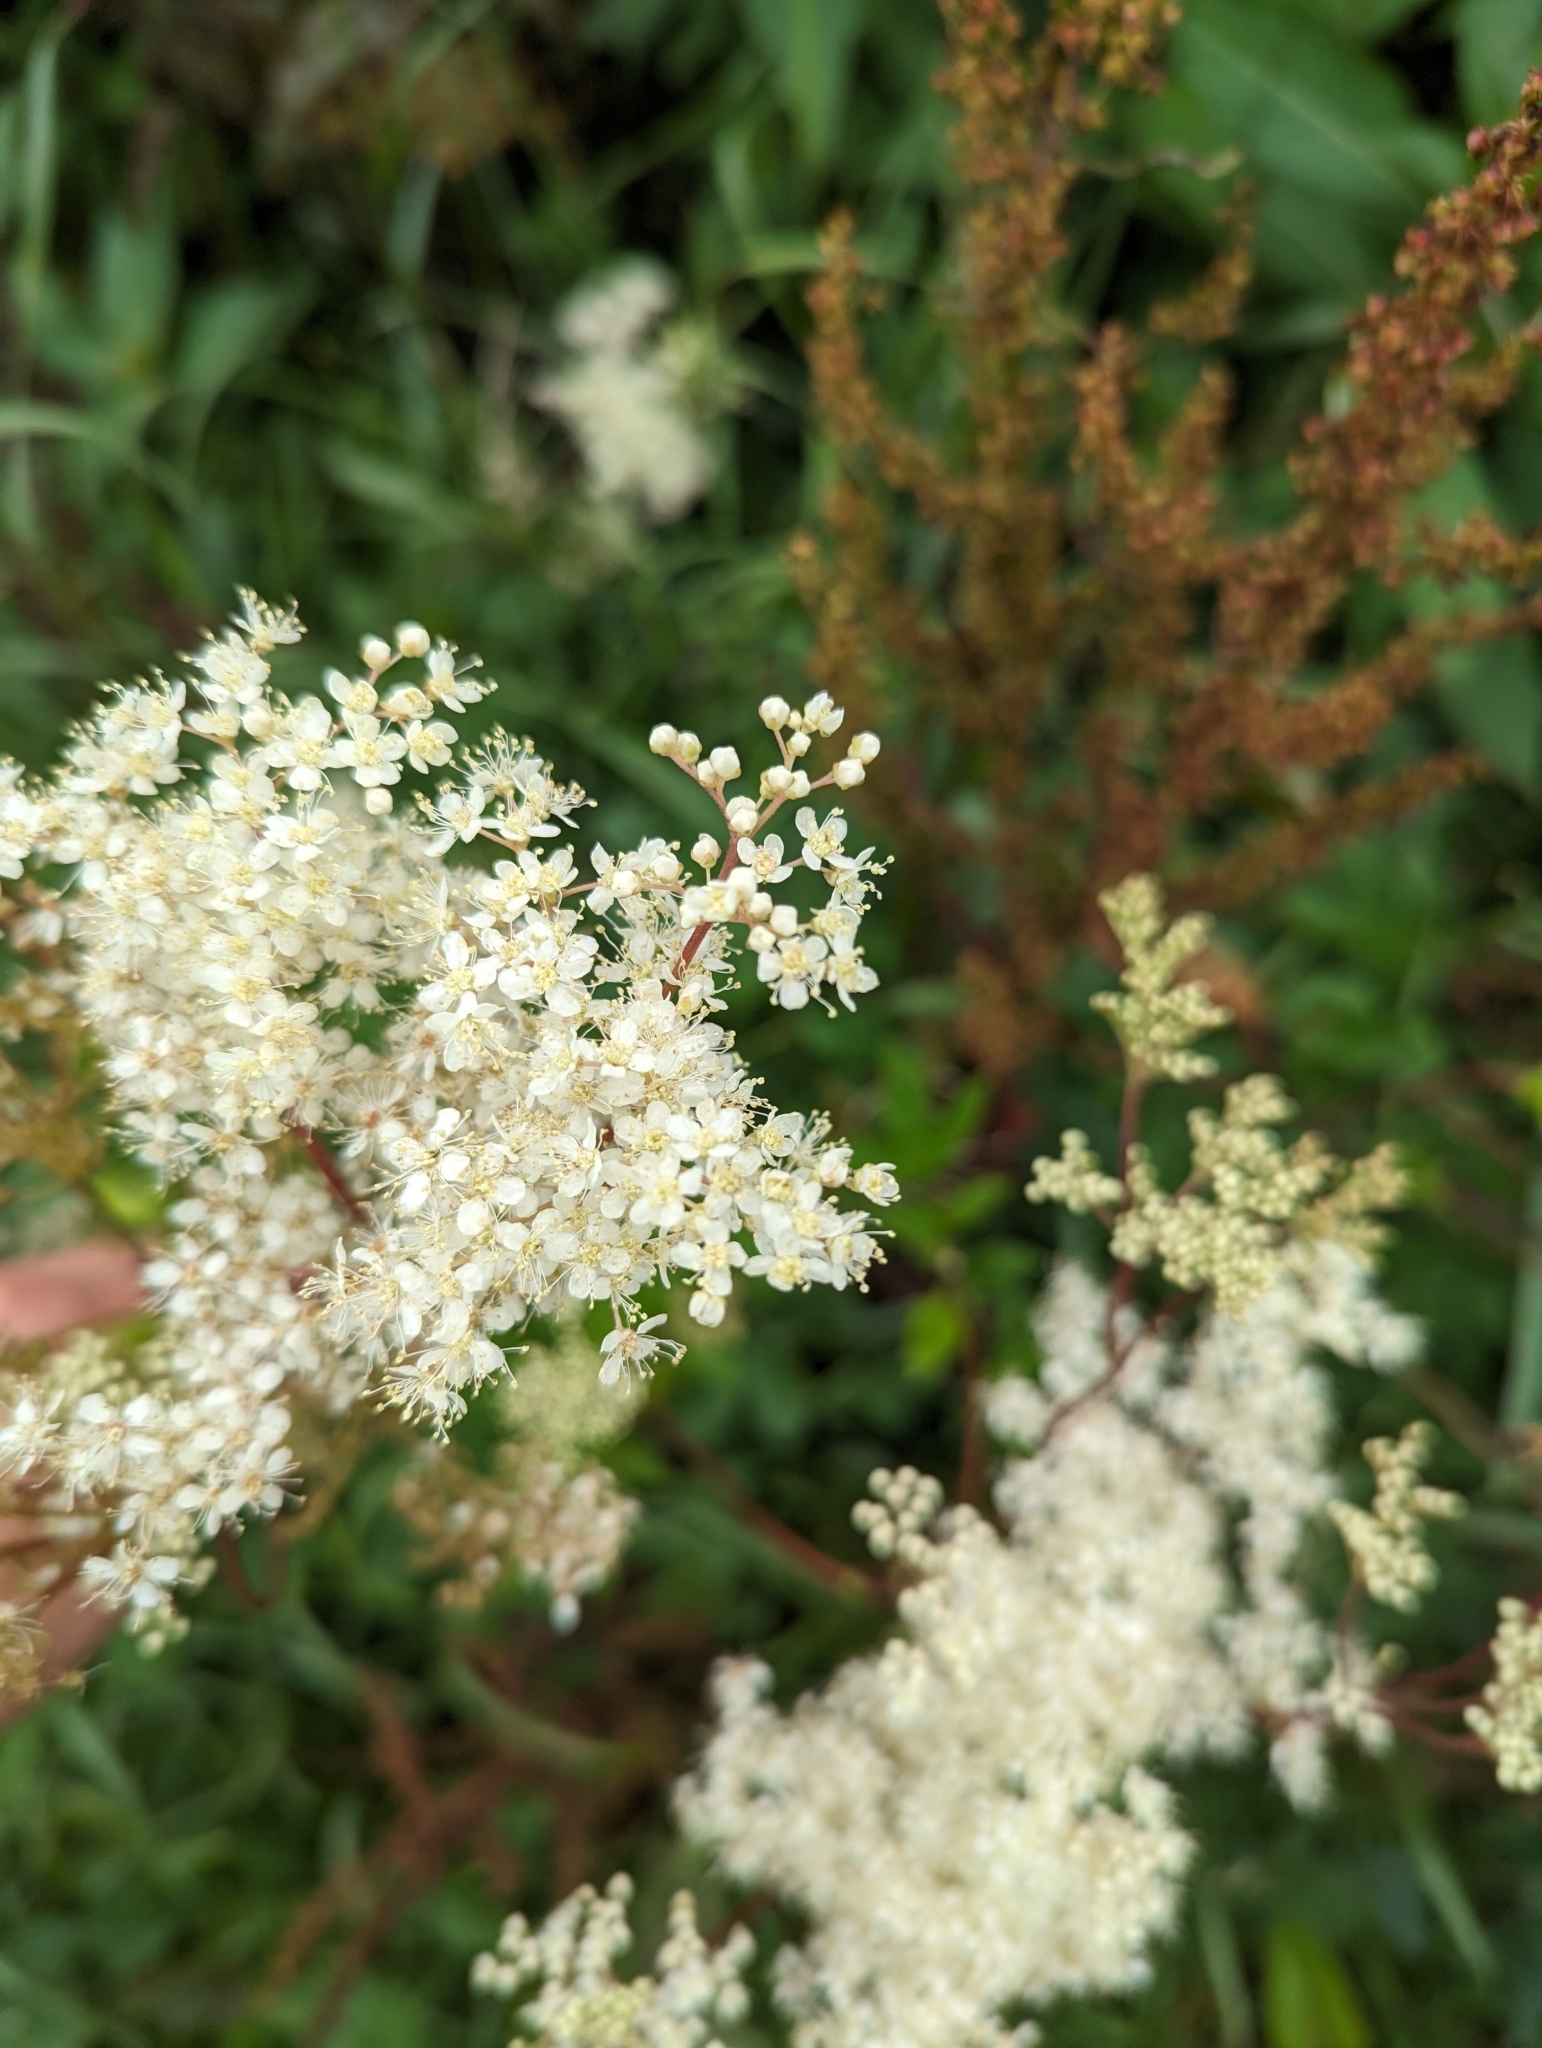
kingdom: Plantae
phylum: Tracheophyta
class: Magnoliopsida
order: Rosales
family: Rosaceae
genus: Filipendula
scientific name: Filipendula ulmaria
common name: Meadowsweet
